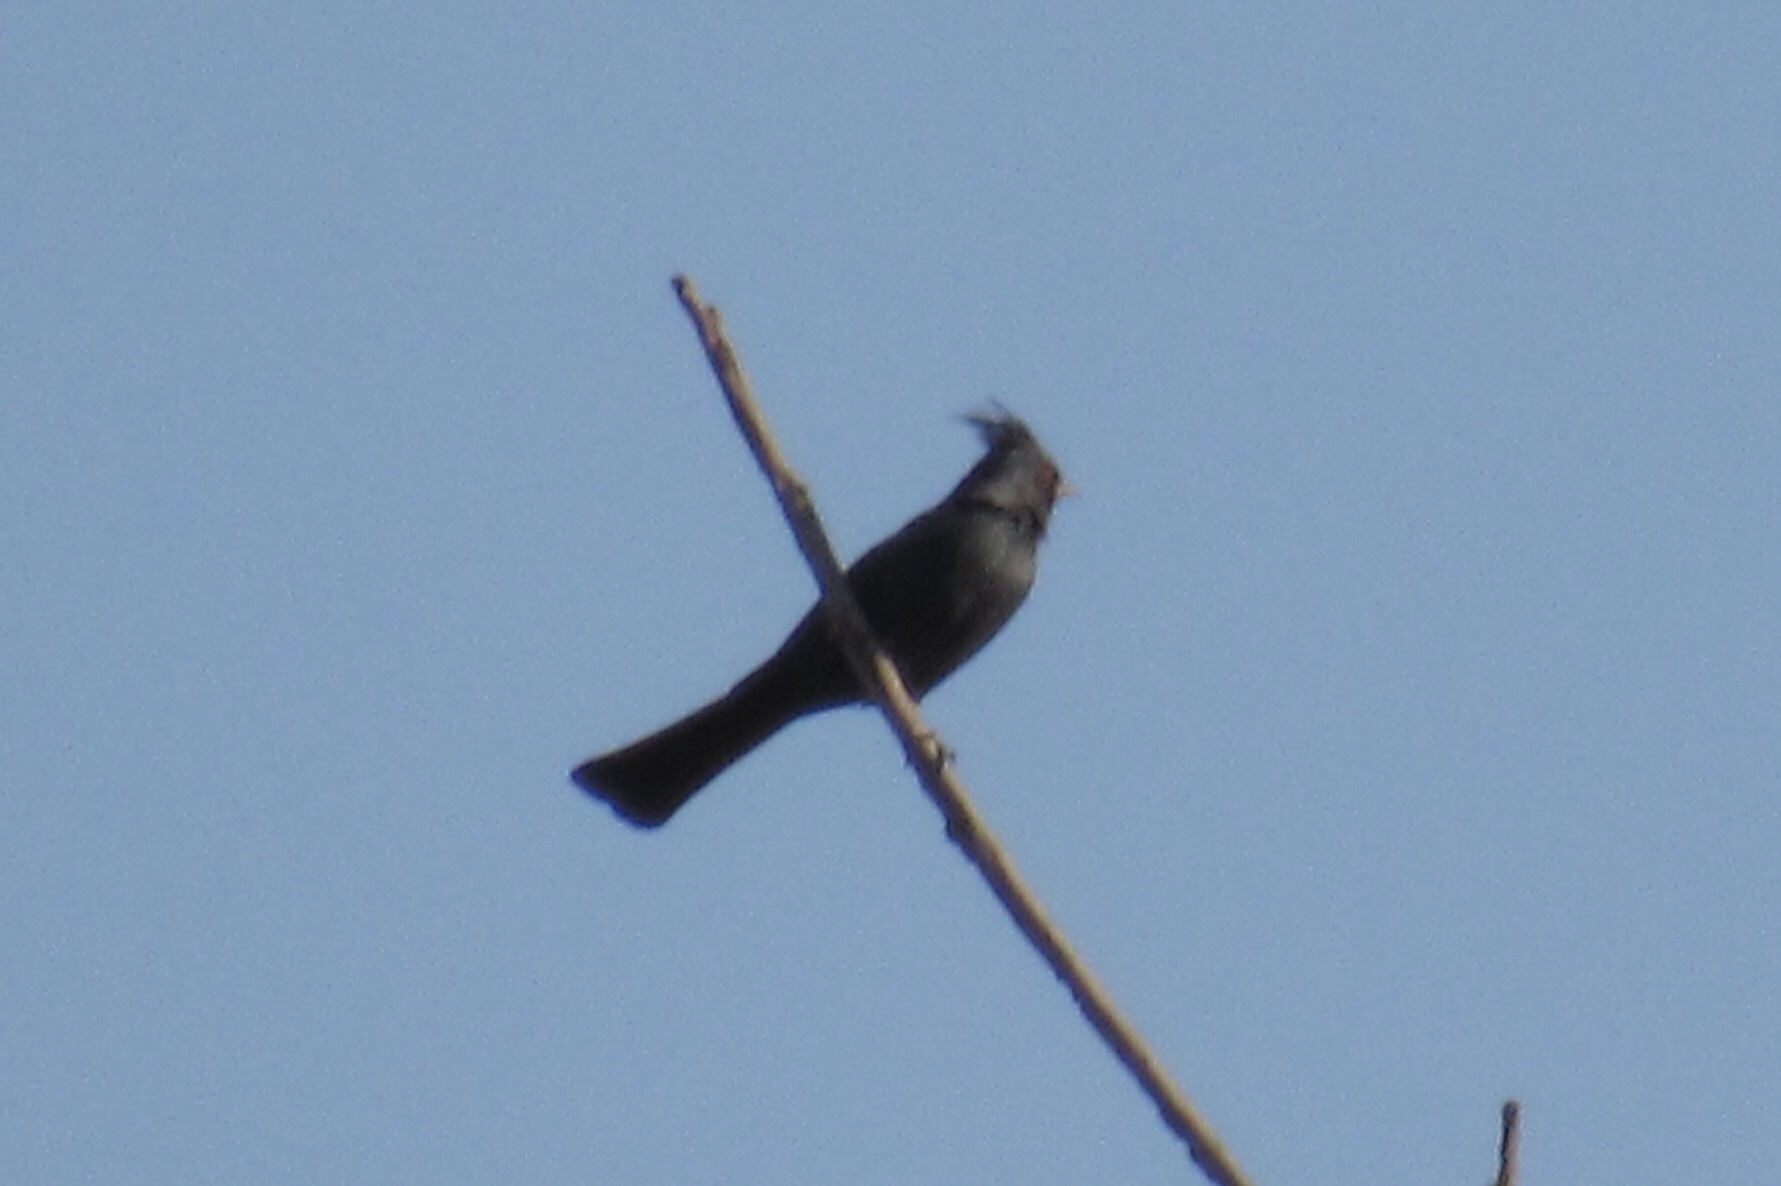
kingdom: Animalia
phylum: Chordata
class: Aves
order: Passeriformes
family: Ptilogonatidae
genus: Phainopepla
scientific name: Phainopepla nitens
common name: Phainopepla
